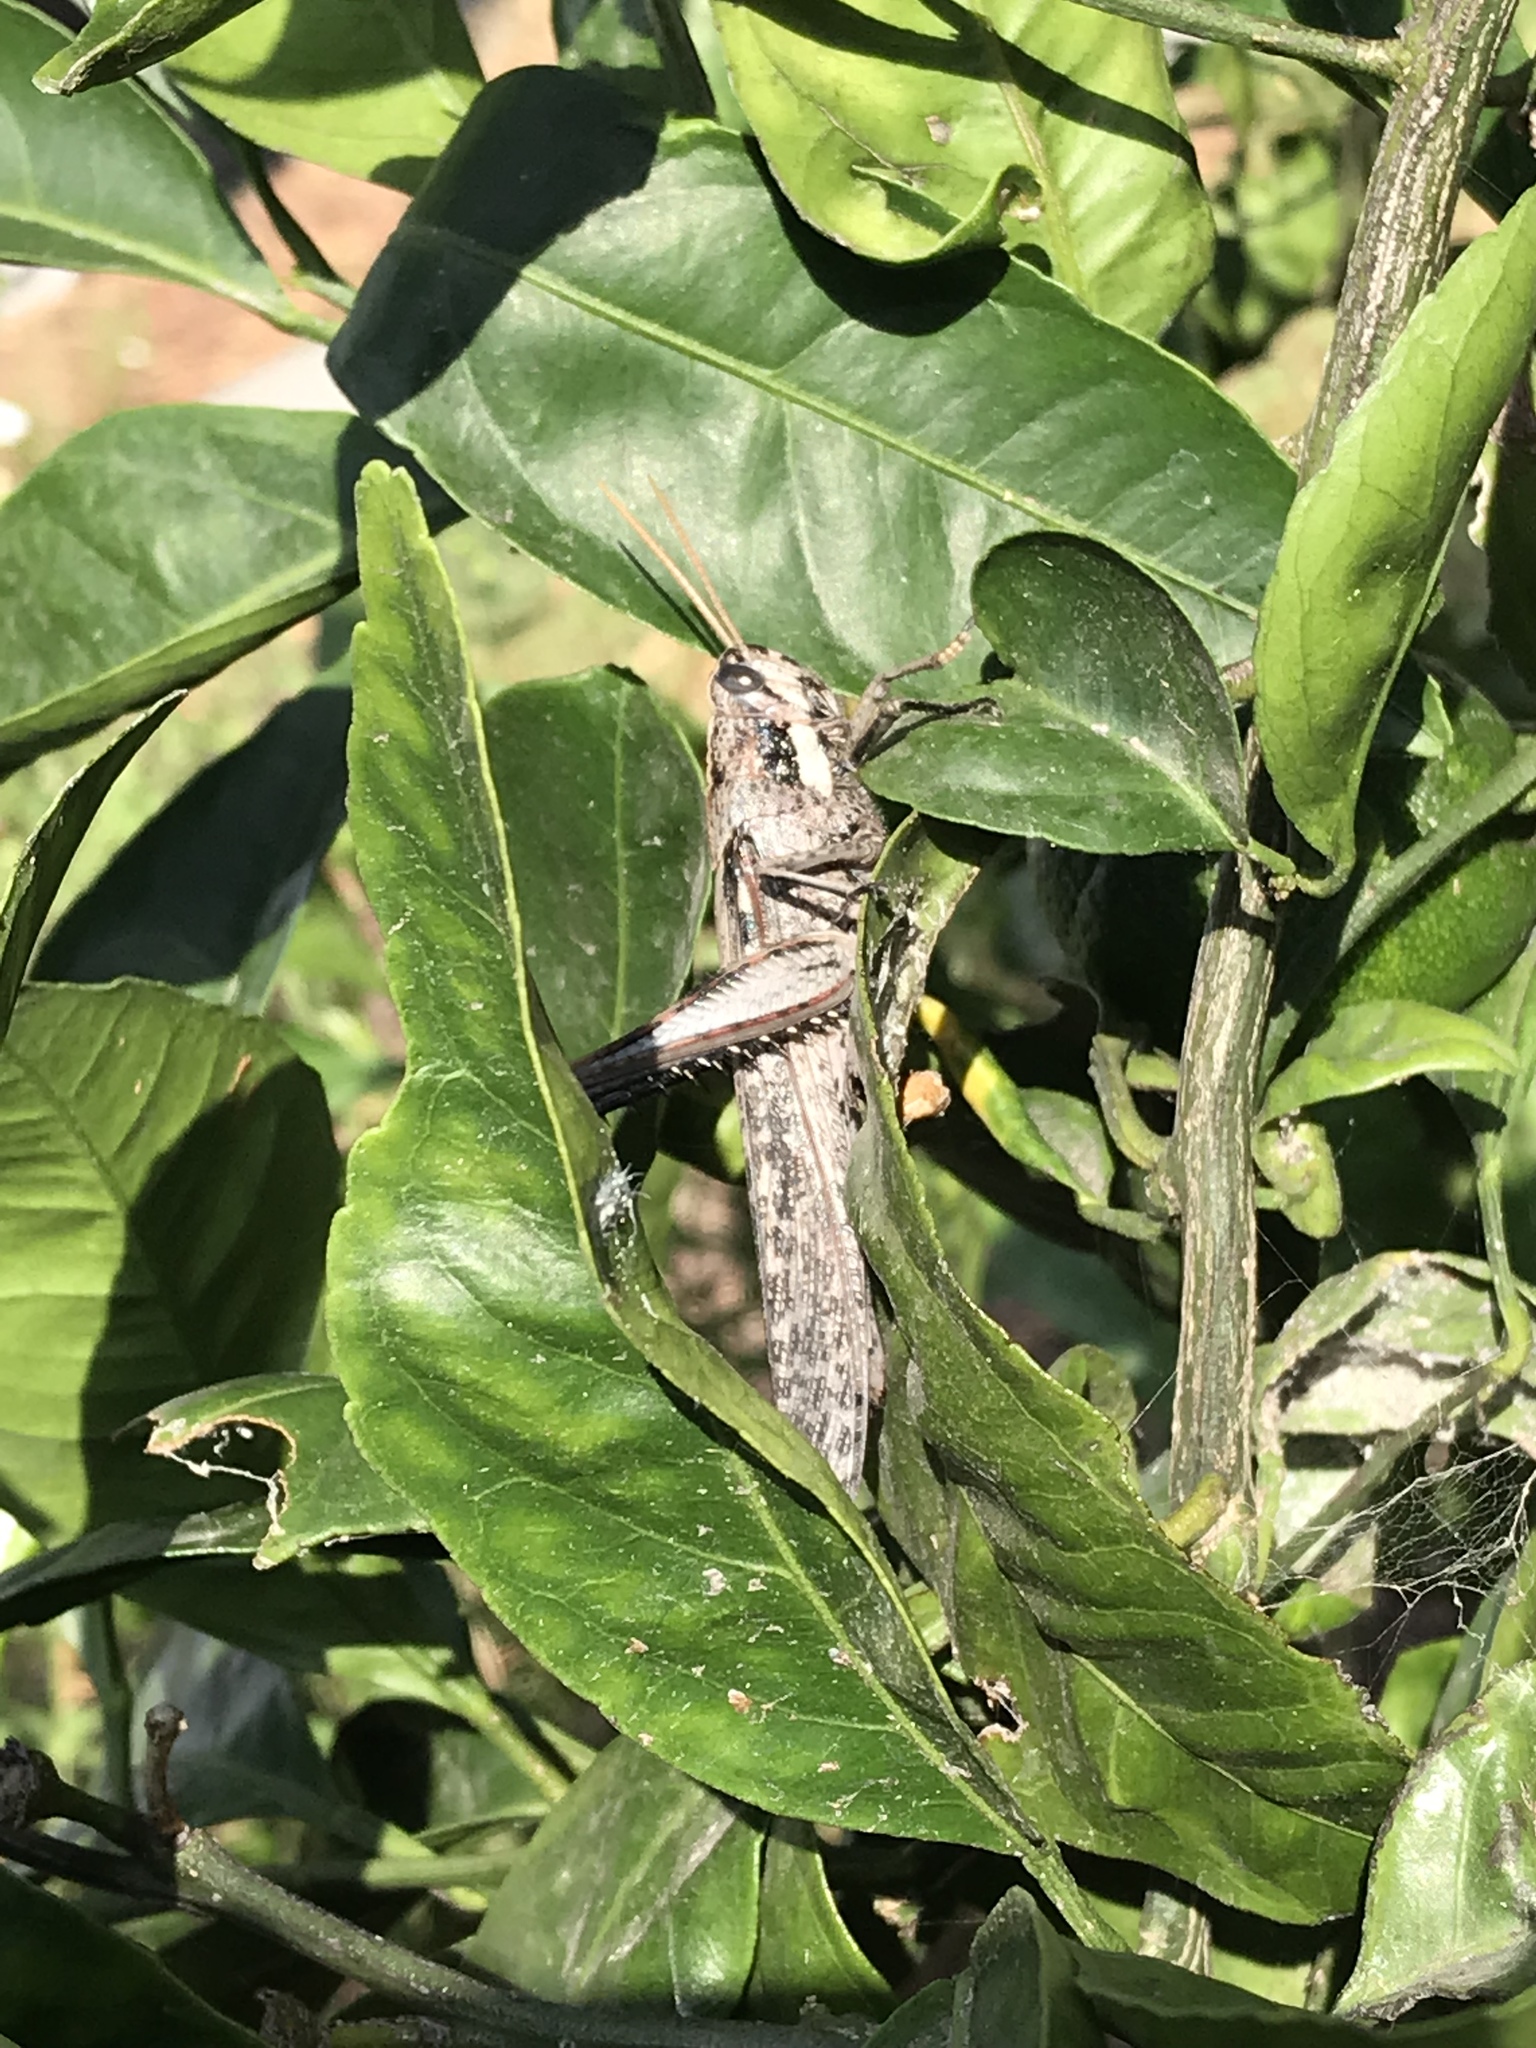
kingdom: Animalia
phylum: Arthropoda
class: Insecta
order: Orthoptera
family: Acrididae
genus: Schistocerca
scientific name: Schistocerca nitens
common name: Vagrant grasshopper
